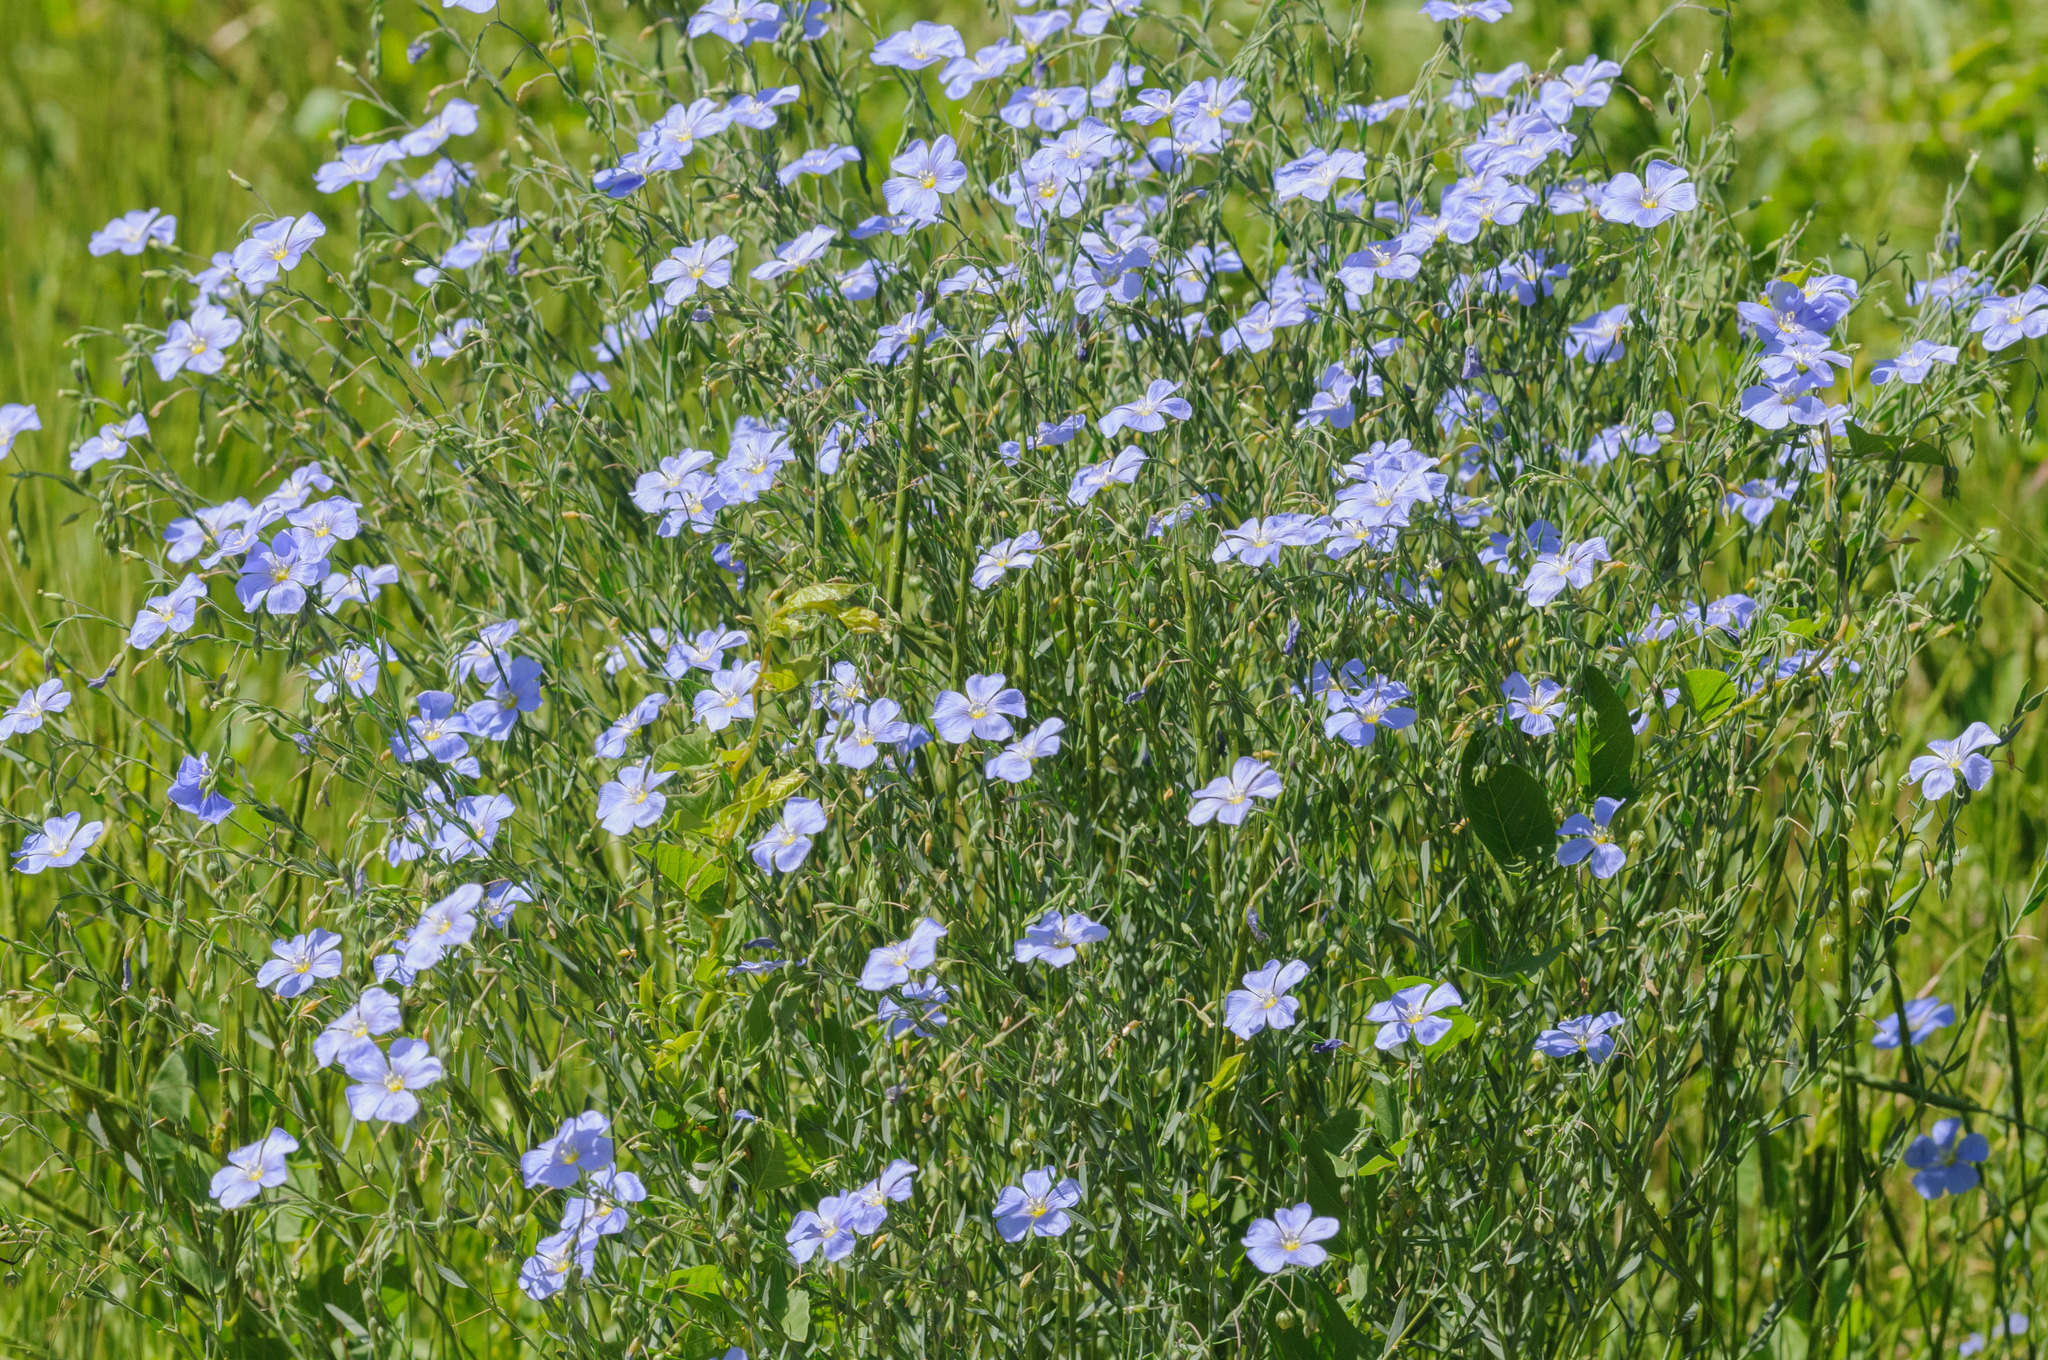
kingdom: Plantae
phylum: Tracheophyta
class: Magnoliopsida
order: Malpighiales
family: Linaceae
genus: Linum
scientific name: Linum lewisii
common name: Prairie flax
